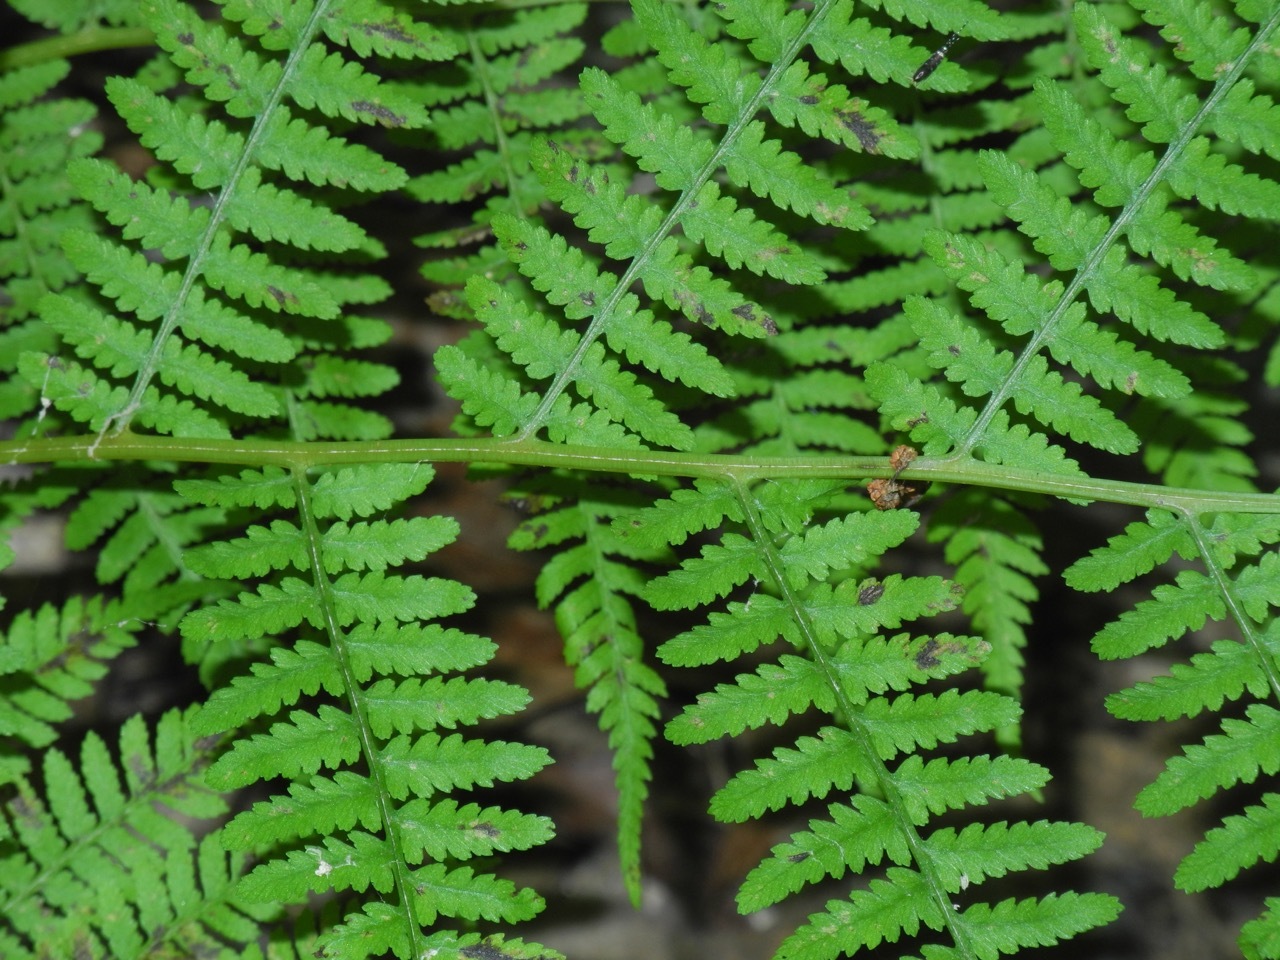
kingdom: Plantae
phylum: Tracheophyta
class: Polypodiopsida
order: Polypodiales
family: Athyriaceae
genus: Athyrium
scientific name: Athyrium asplenioides
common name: Southern lady fern
